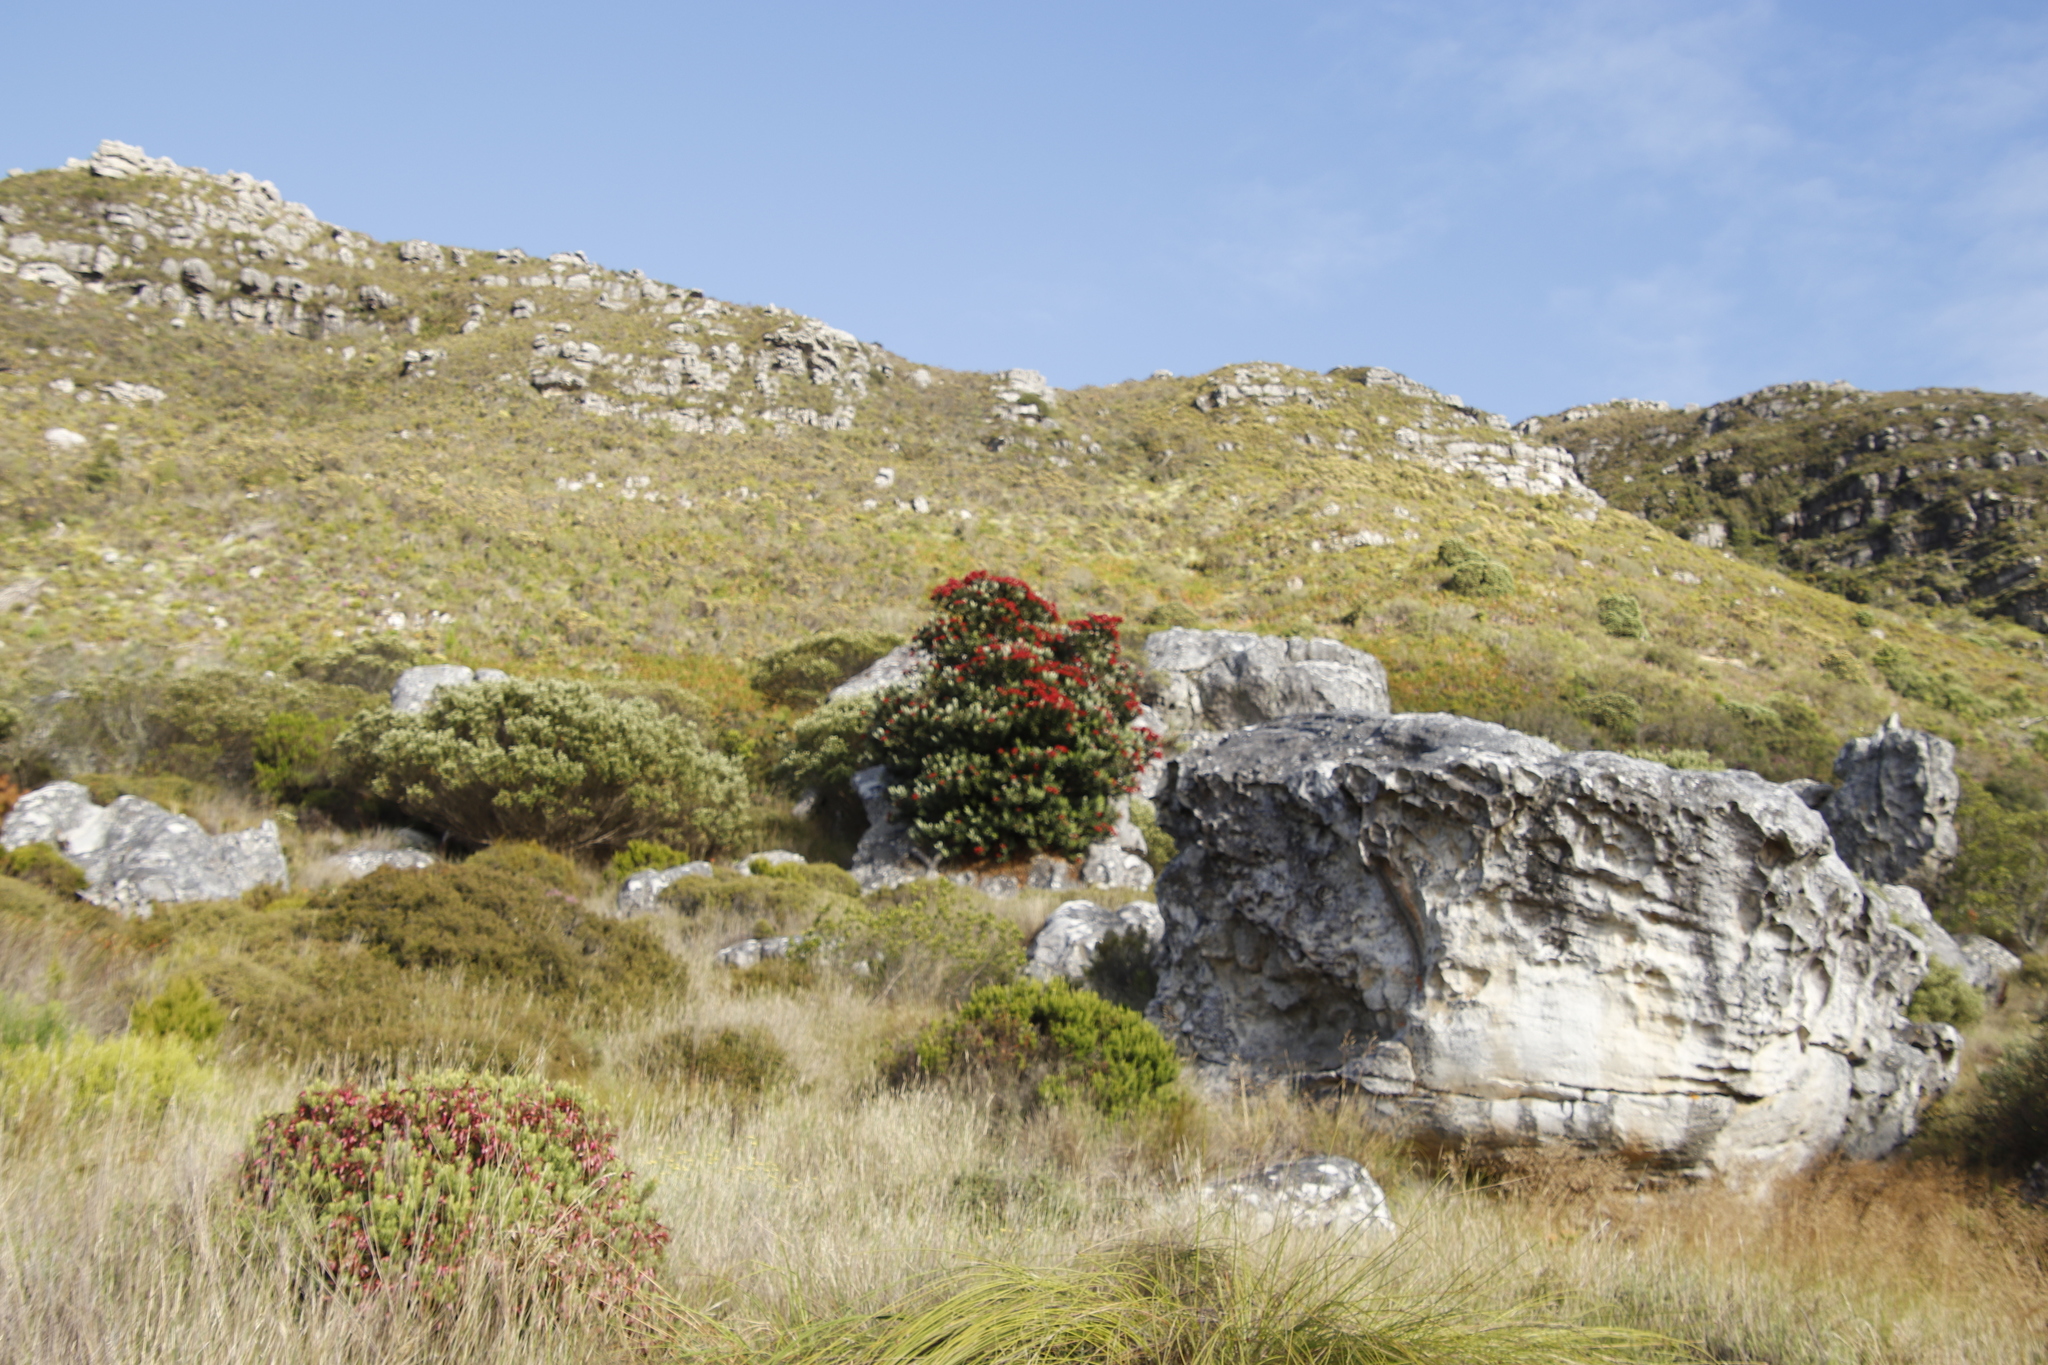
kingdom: Plantae
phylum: Tracheophyta
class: Magnoliopsida
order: Myrtales
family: Myrtaceae
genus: Metrosideros
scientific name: Metrosideros excelsa
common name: New zealand christmastree
